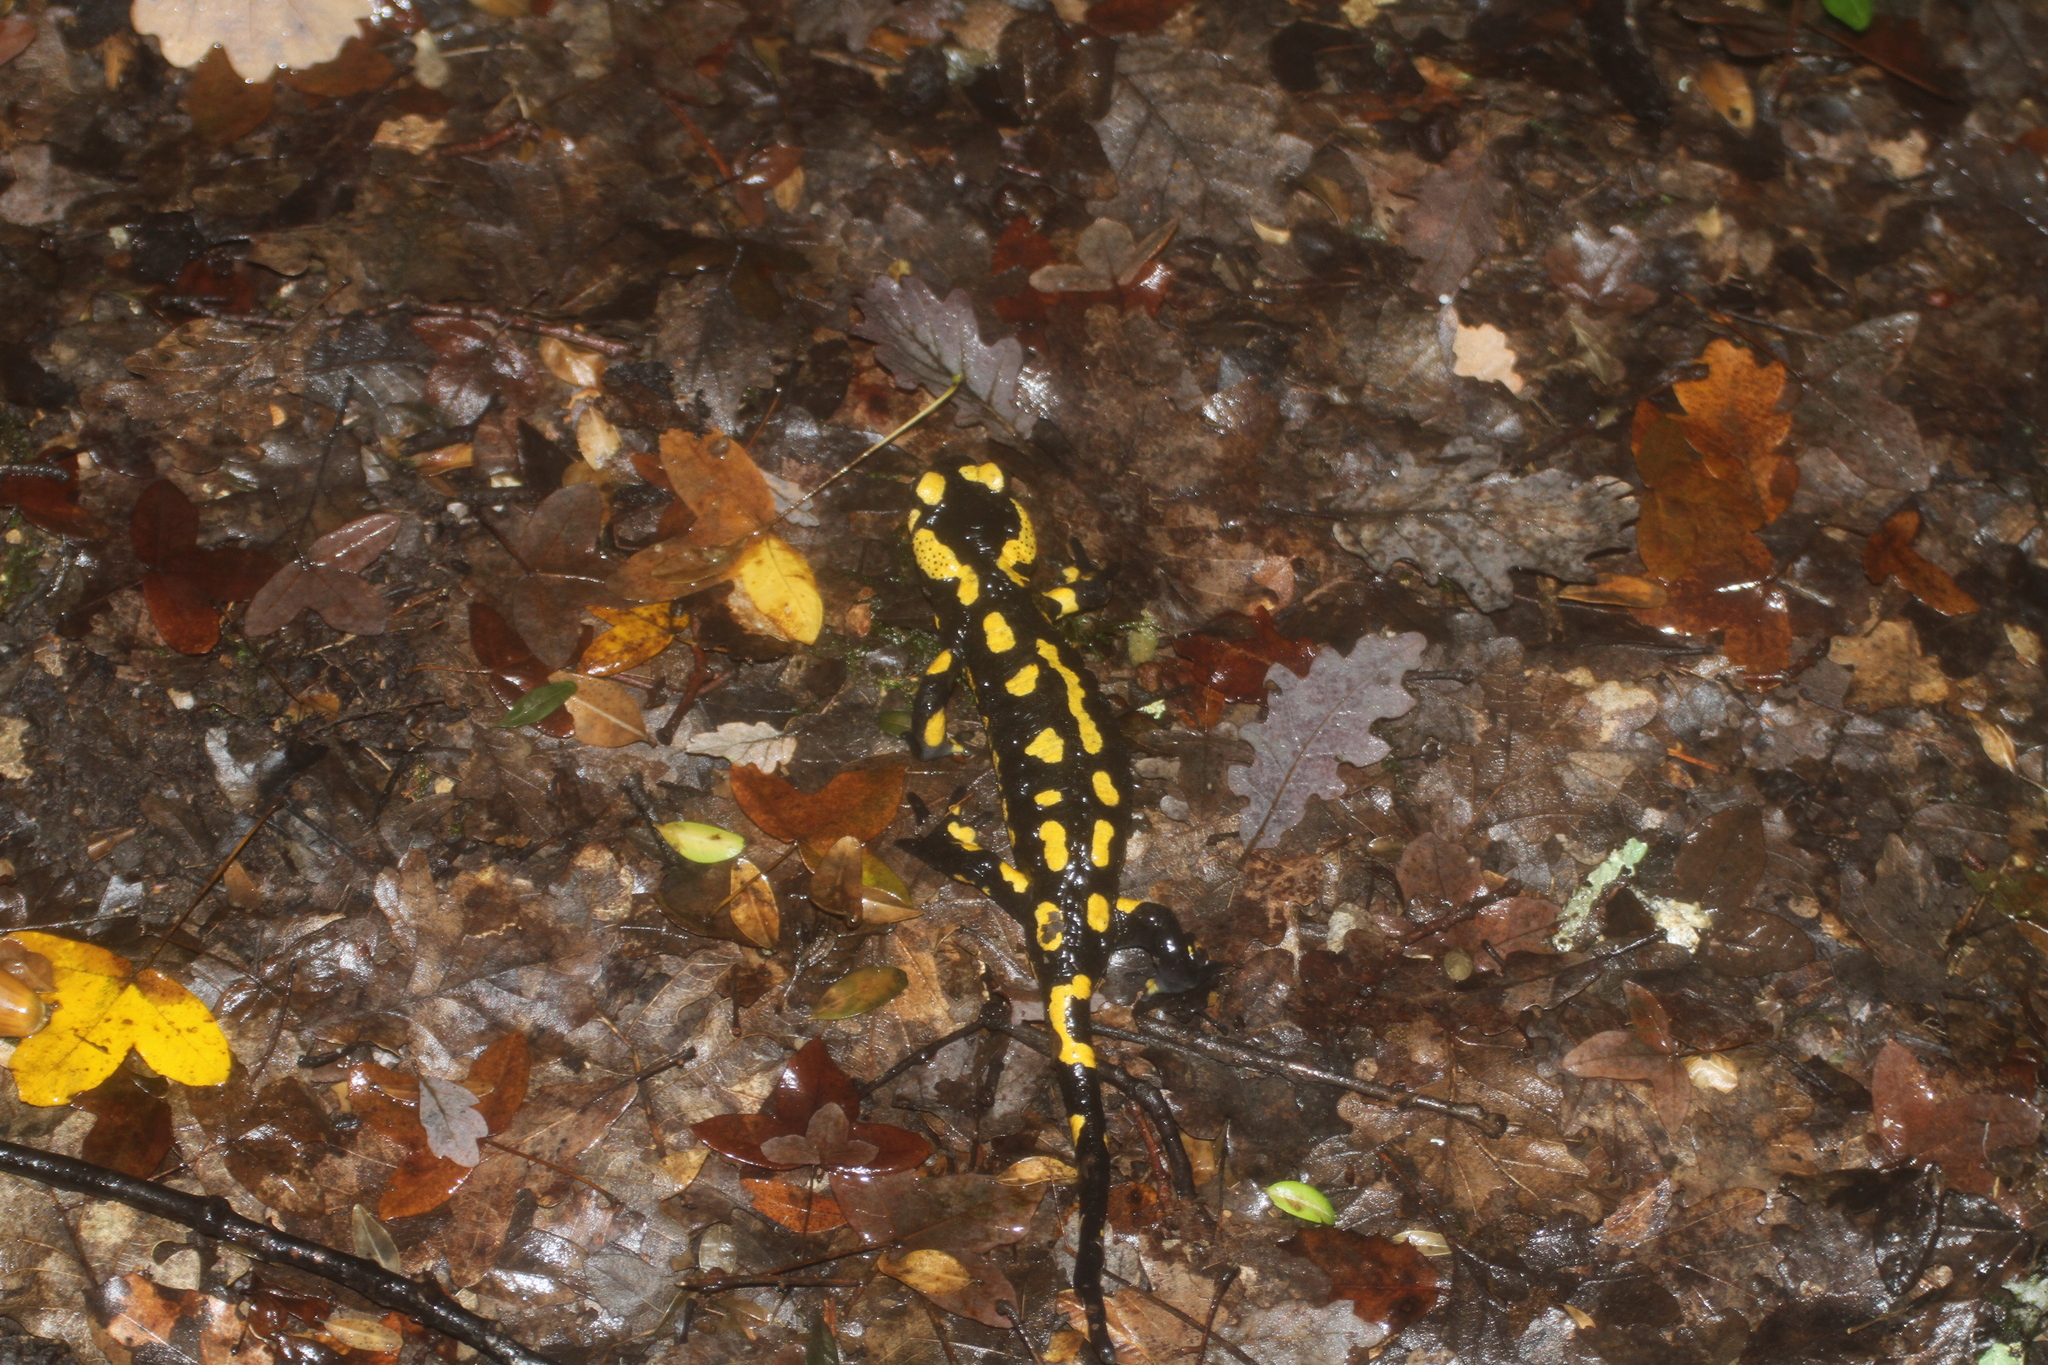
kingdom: Animalia
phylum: Chordata
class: Amphibia
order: Caudata
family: Salamandridae
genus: Salamandra
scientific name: Salamandra salamandra
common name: Fire salamander
